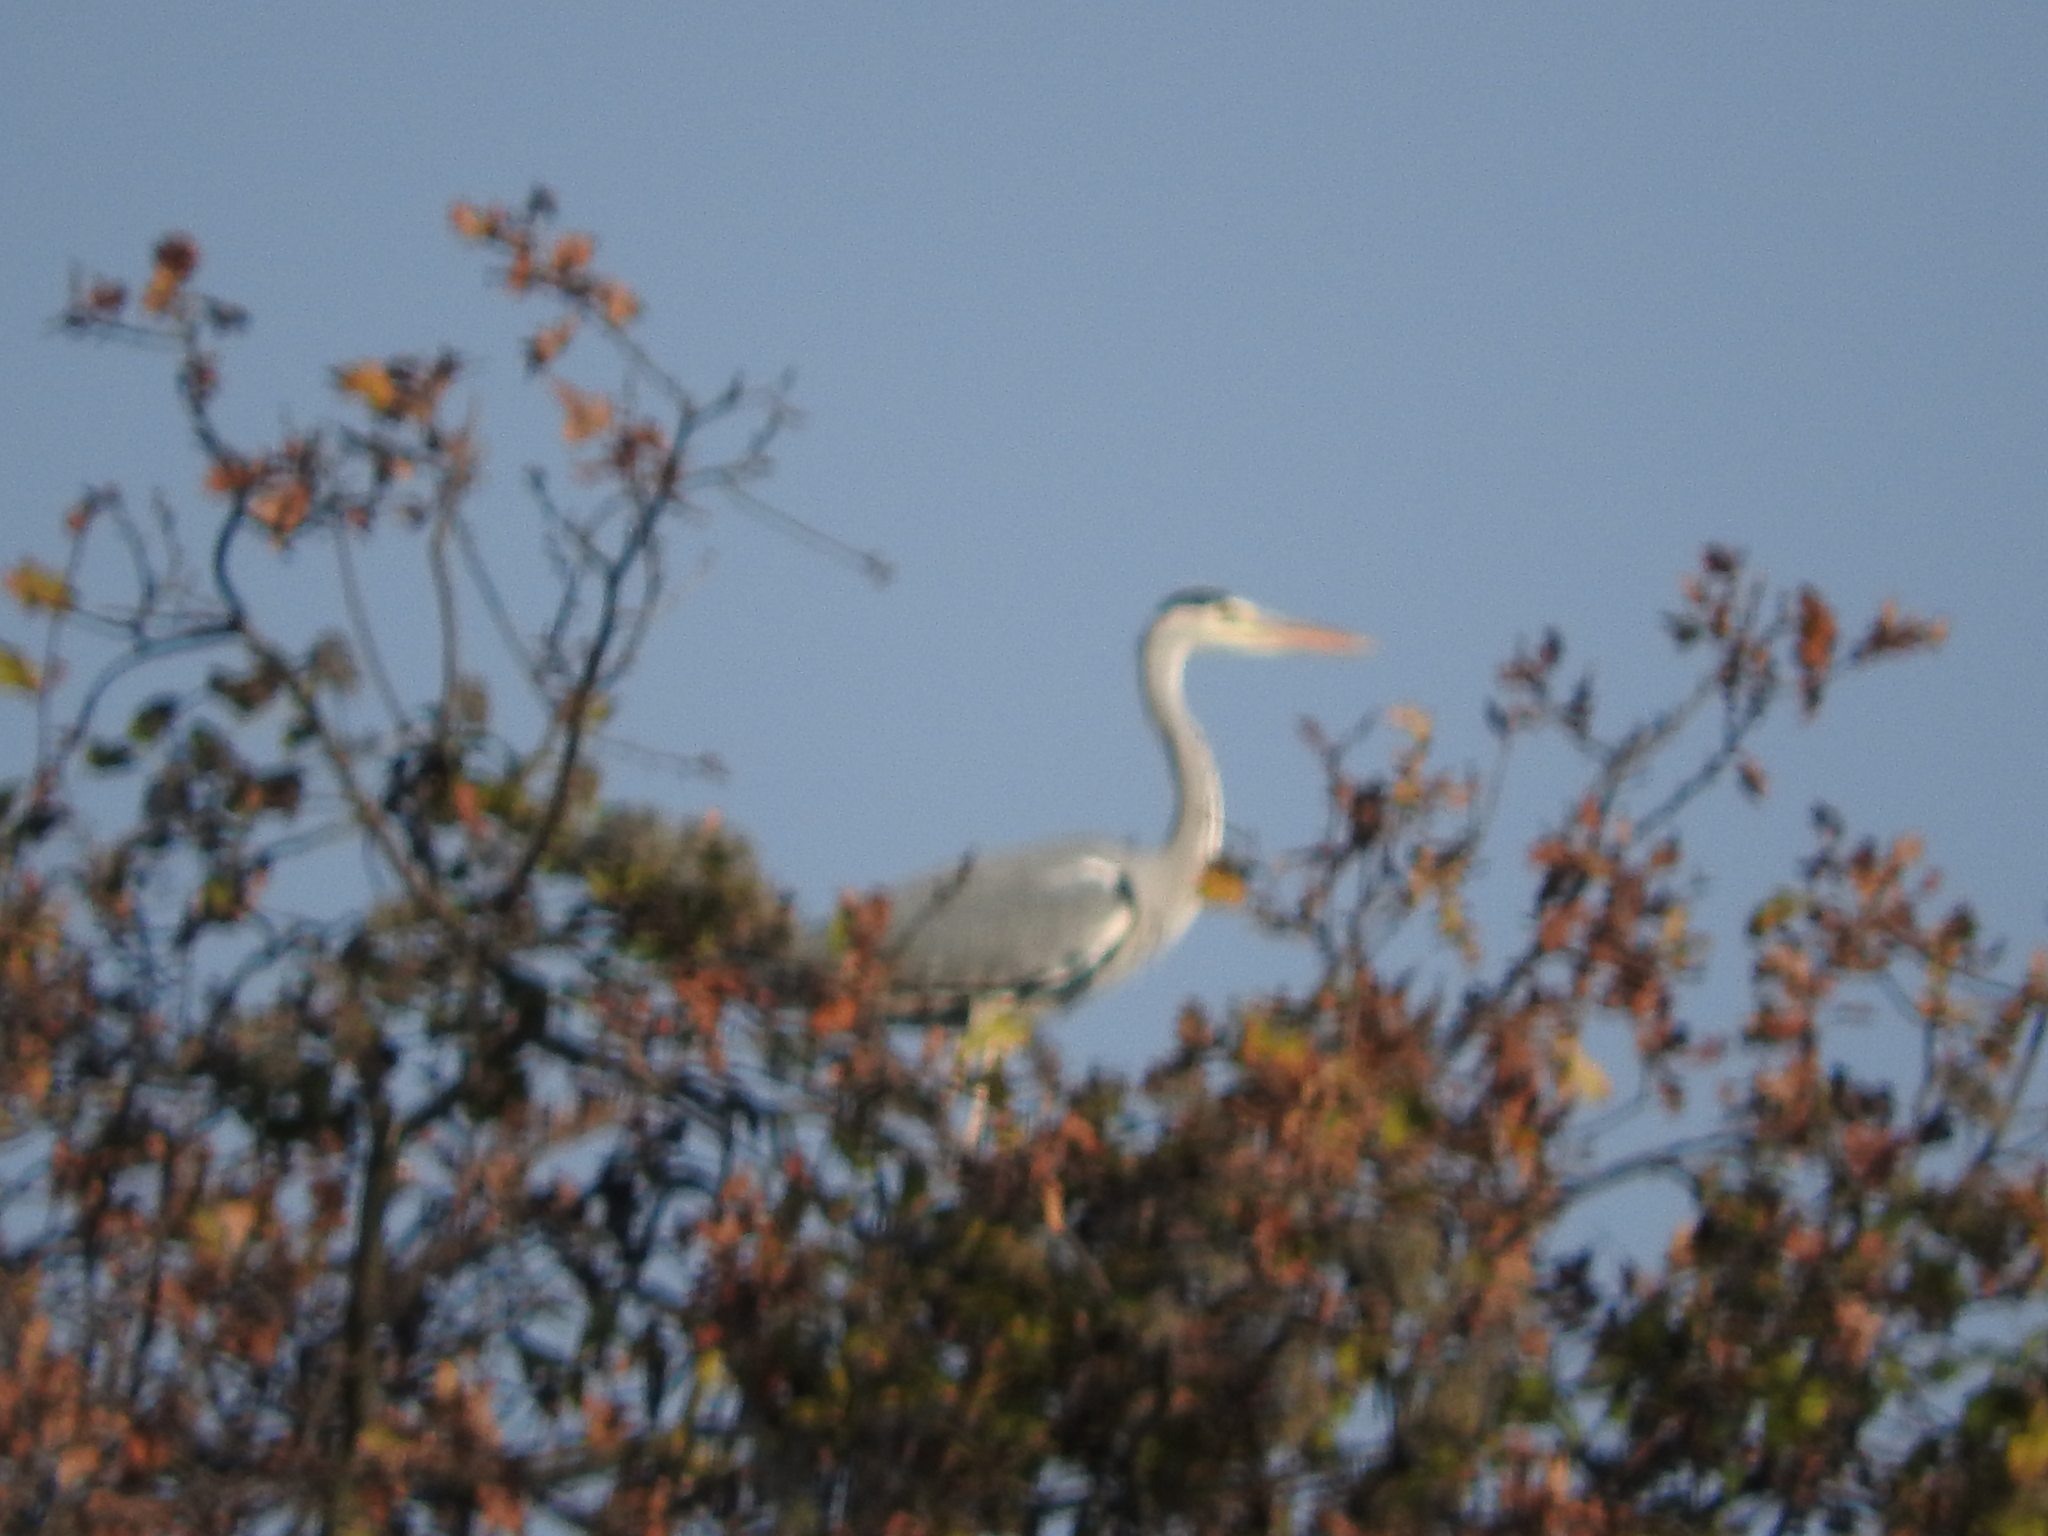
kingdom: Animalia
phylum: Chordata
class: Aves
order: Pelecaniformes
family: Ardeidae
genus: Ardea
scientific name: Ardea cinerea
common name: Grey heron
